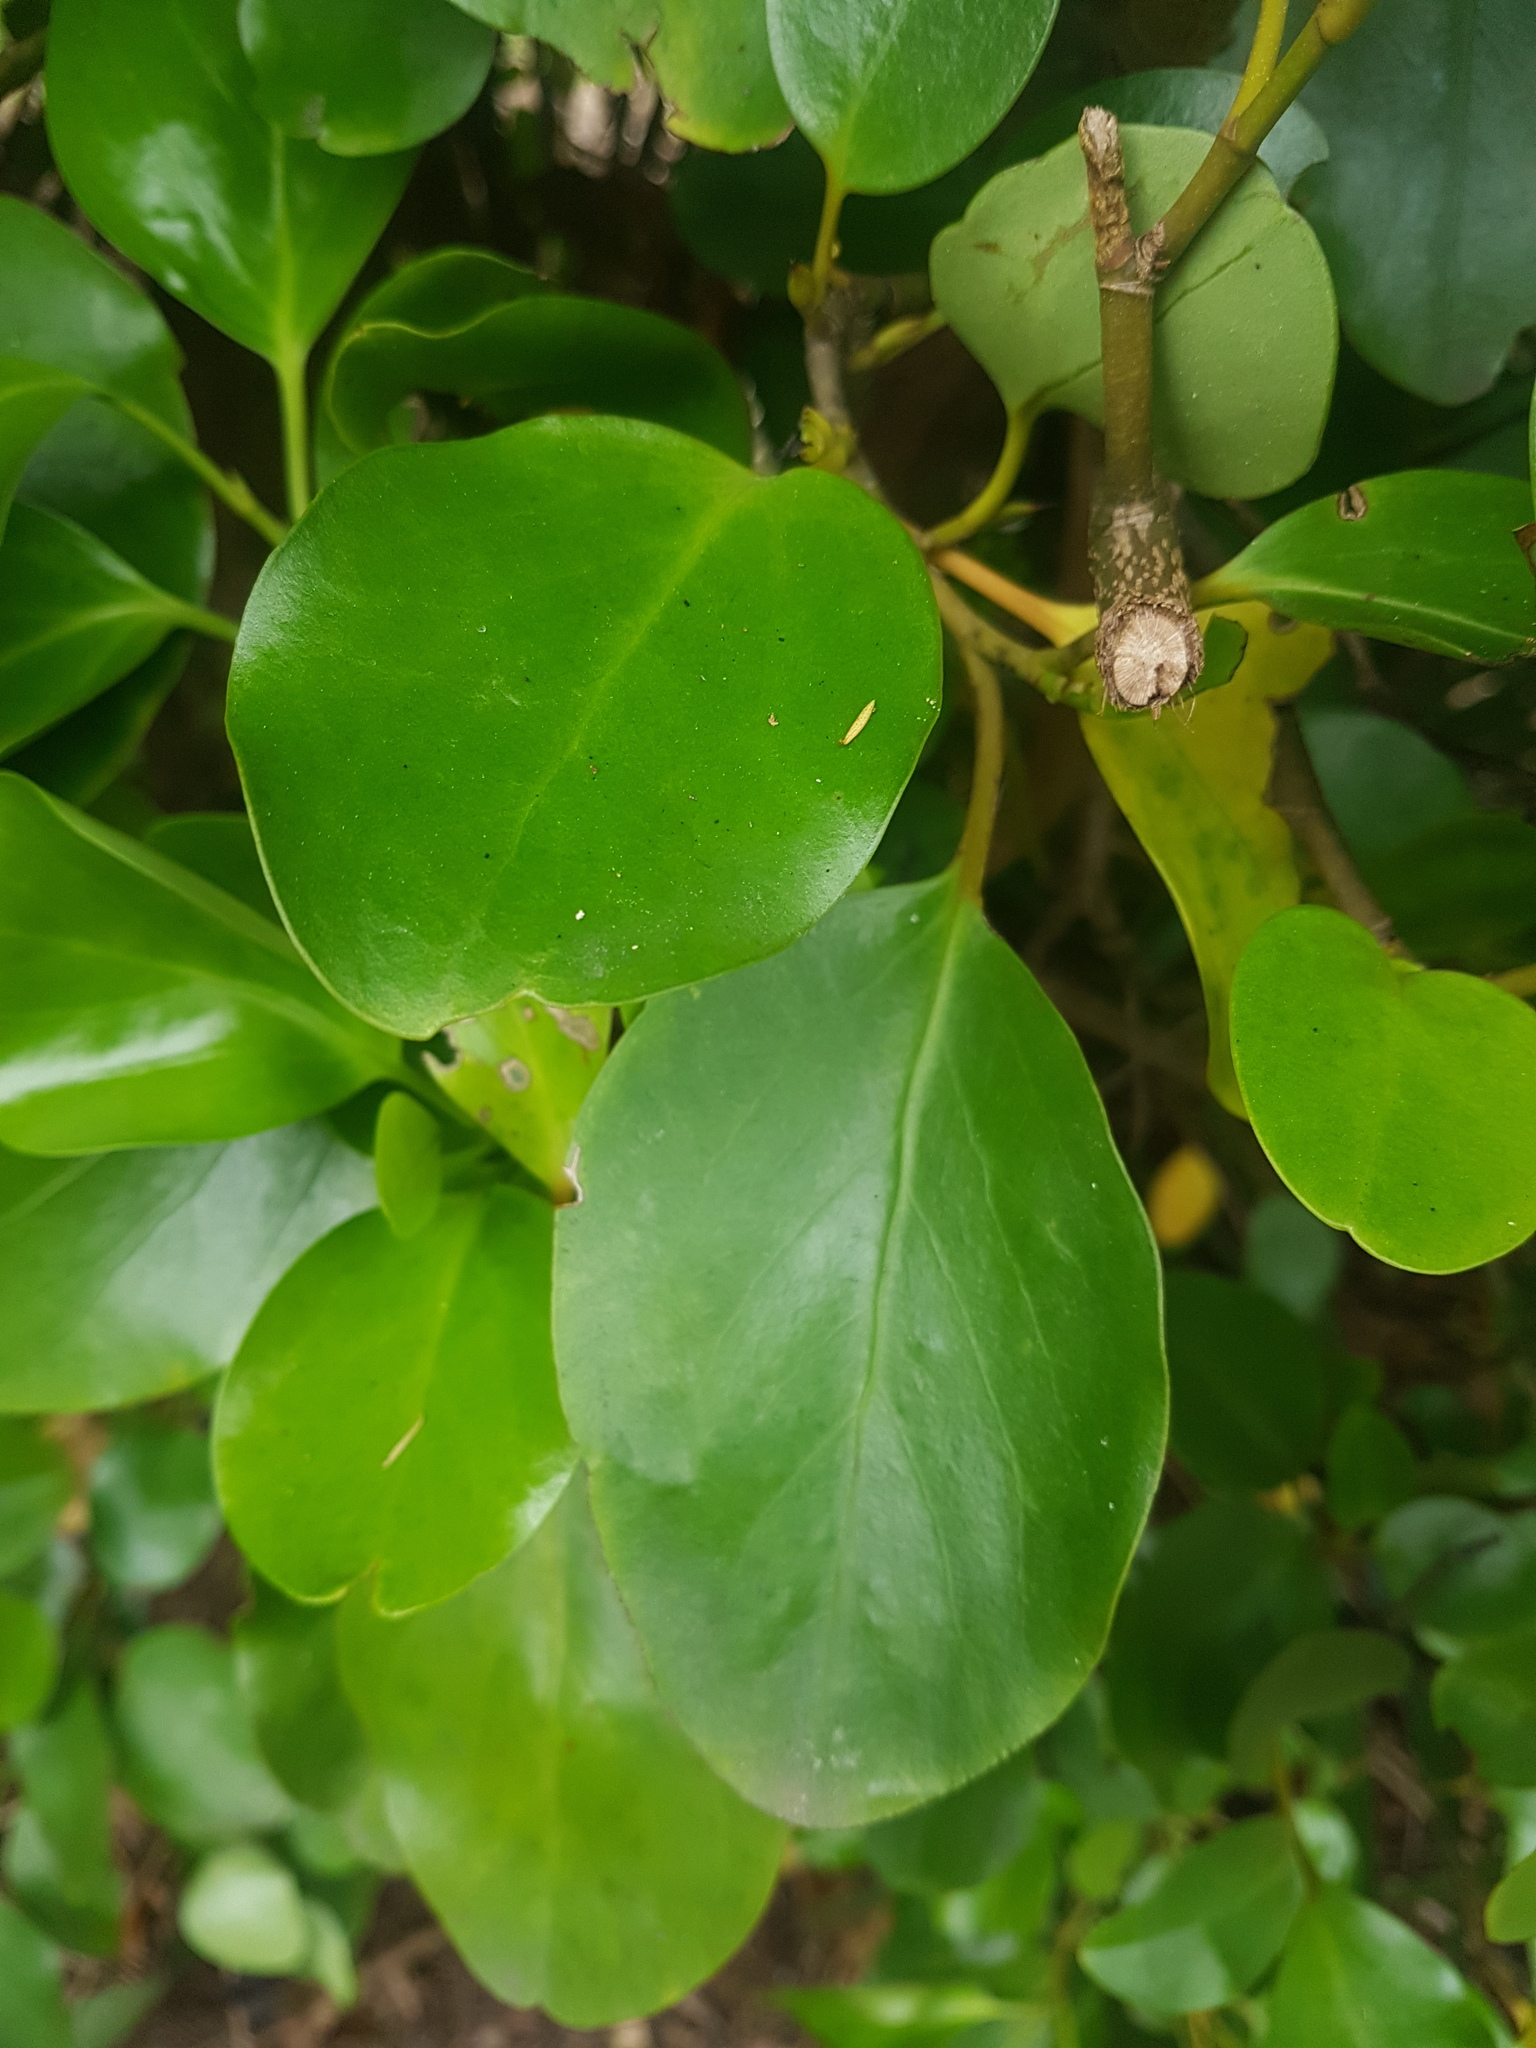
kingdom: Plantae
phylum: Tracheophyta
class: Magnoliopsida
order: Apiales
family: Griseliniaceae
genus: Griselinia
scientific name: Griselinia littoralis
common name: New zealand broadleaf
